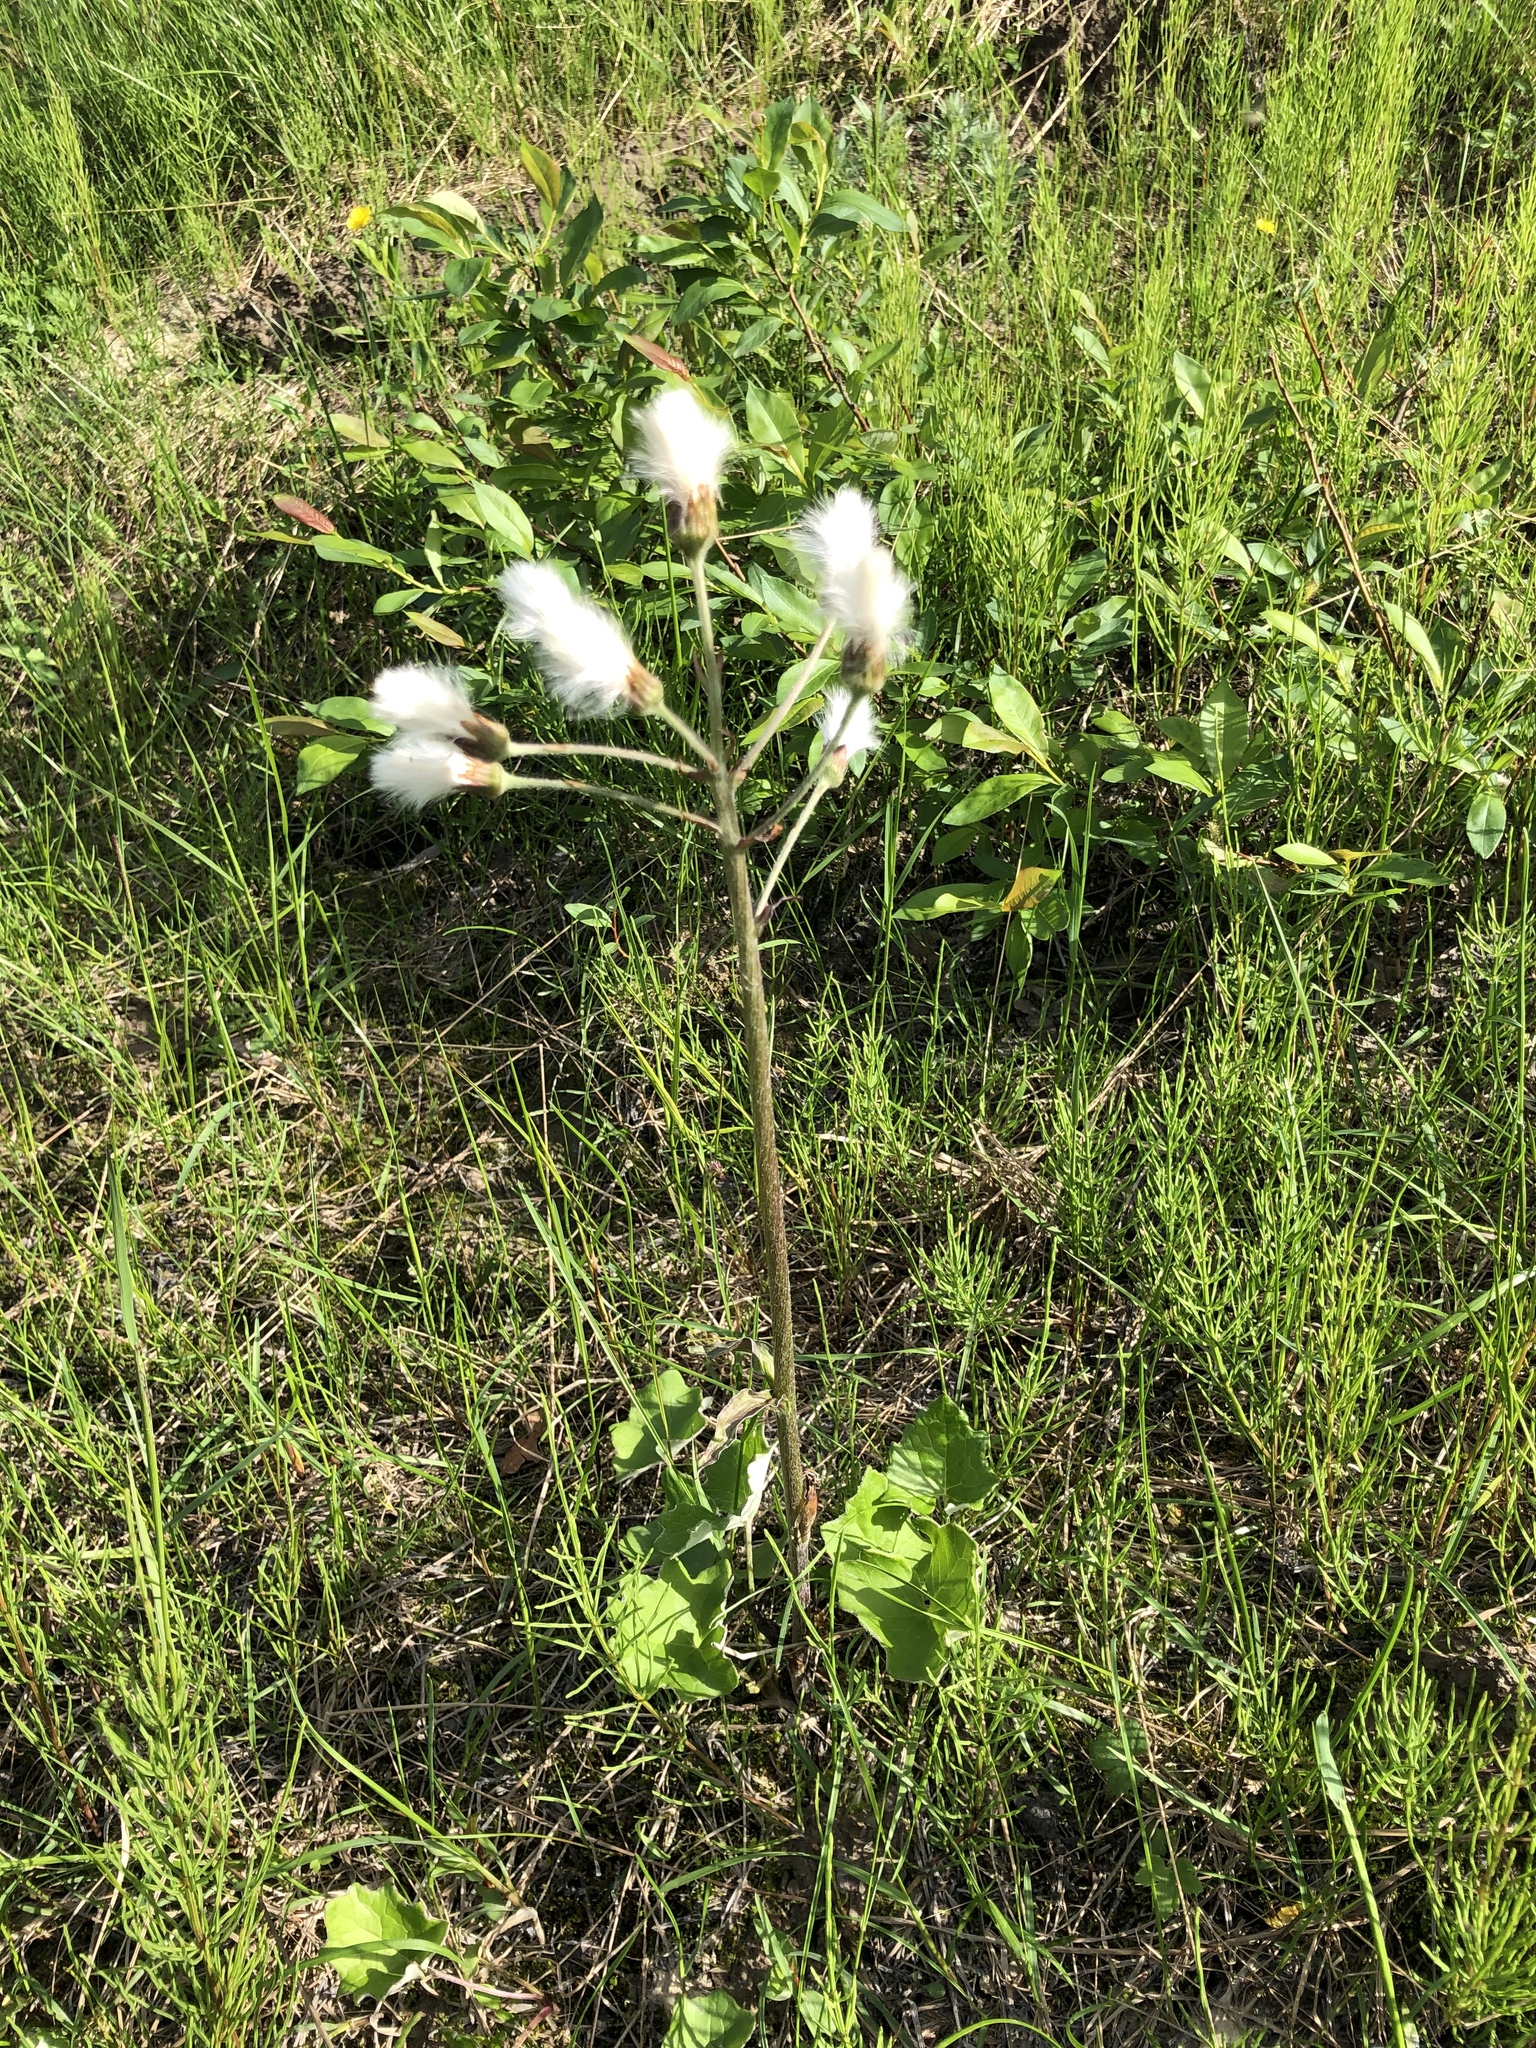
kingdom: Plantae
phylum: Tracheophyta
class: Magnoliopsida
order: Asterales
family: Asteraceae
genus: Petasites
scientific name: Petasites frigidus
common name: Arctic butterbur
